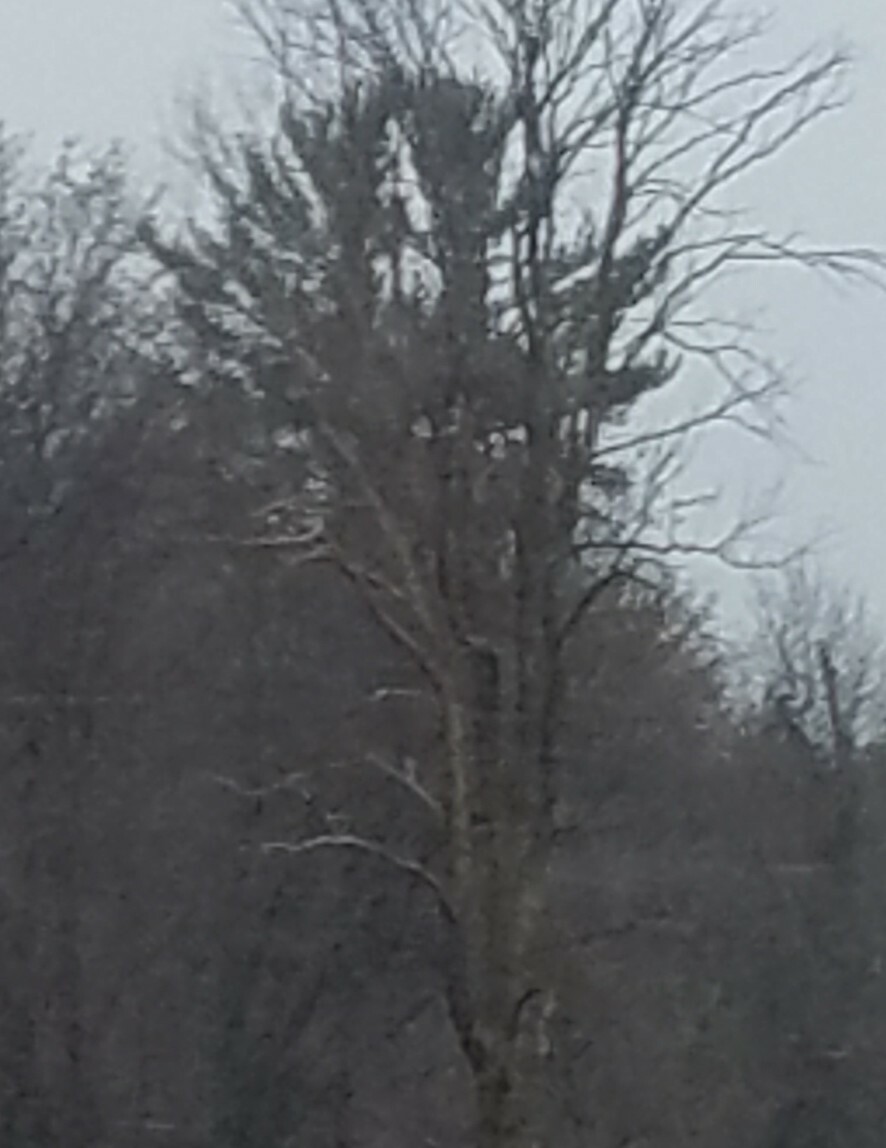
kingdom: Plantae
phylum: Tracheophyta
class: Pinopsida
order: Pinales
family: Pinaceae
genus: Pinus
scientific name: Pinus strobus
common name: Weymouth pine
